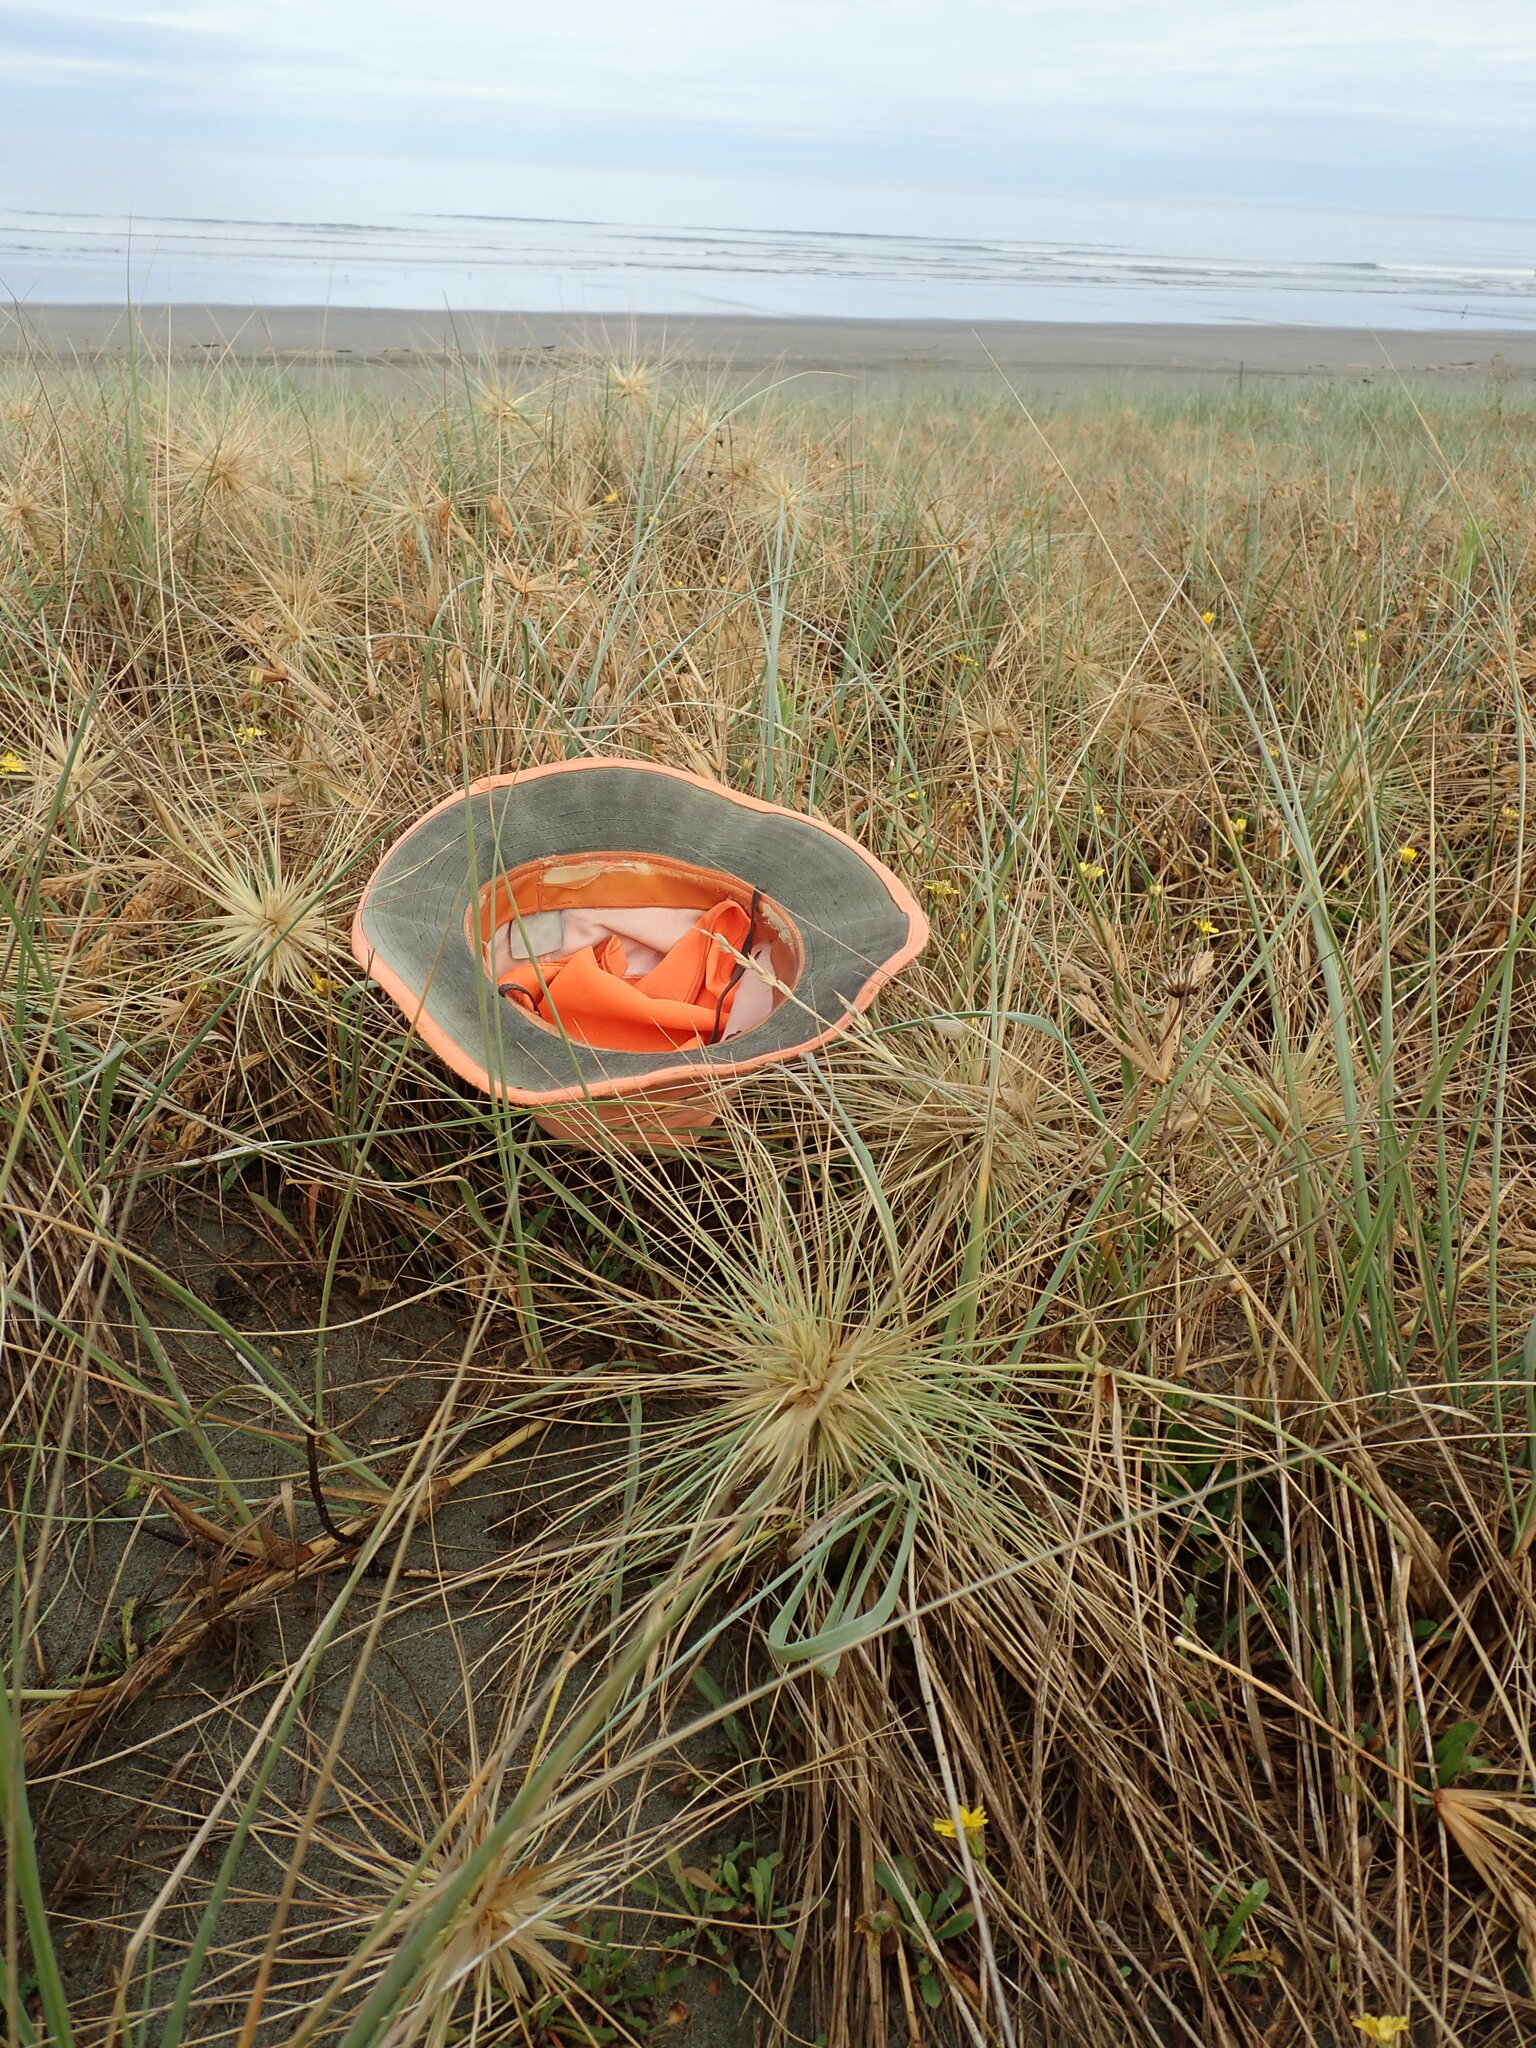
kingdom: Plantae
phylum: Tracheophyta
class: Liliopsida
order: Poales
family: Poaceae
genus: Spinifex
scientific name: Spinifex sericeus
